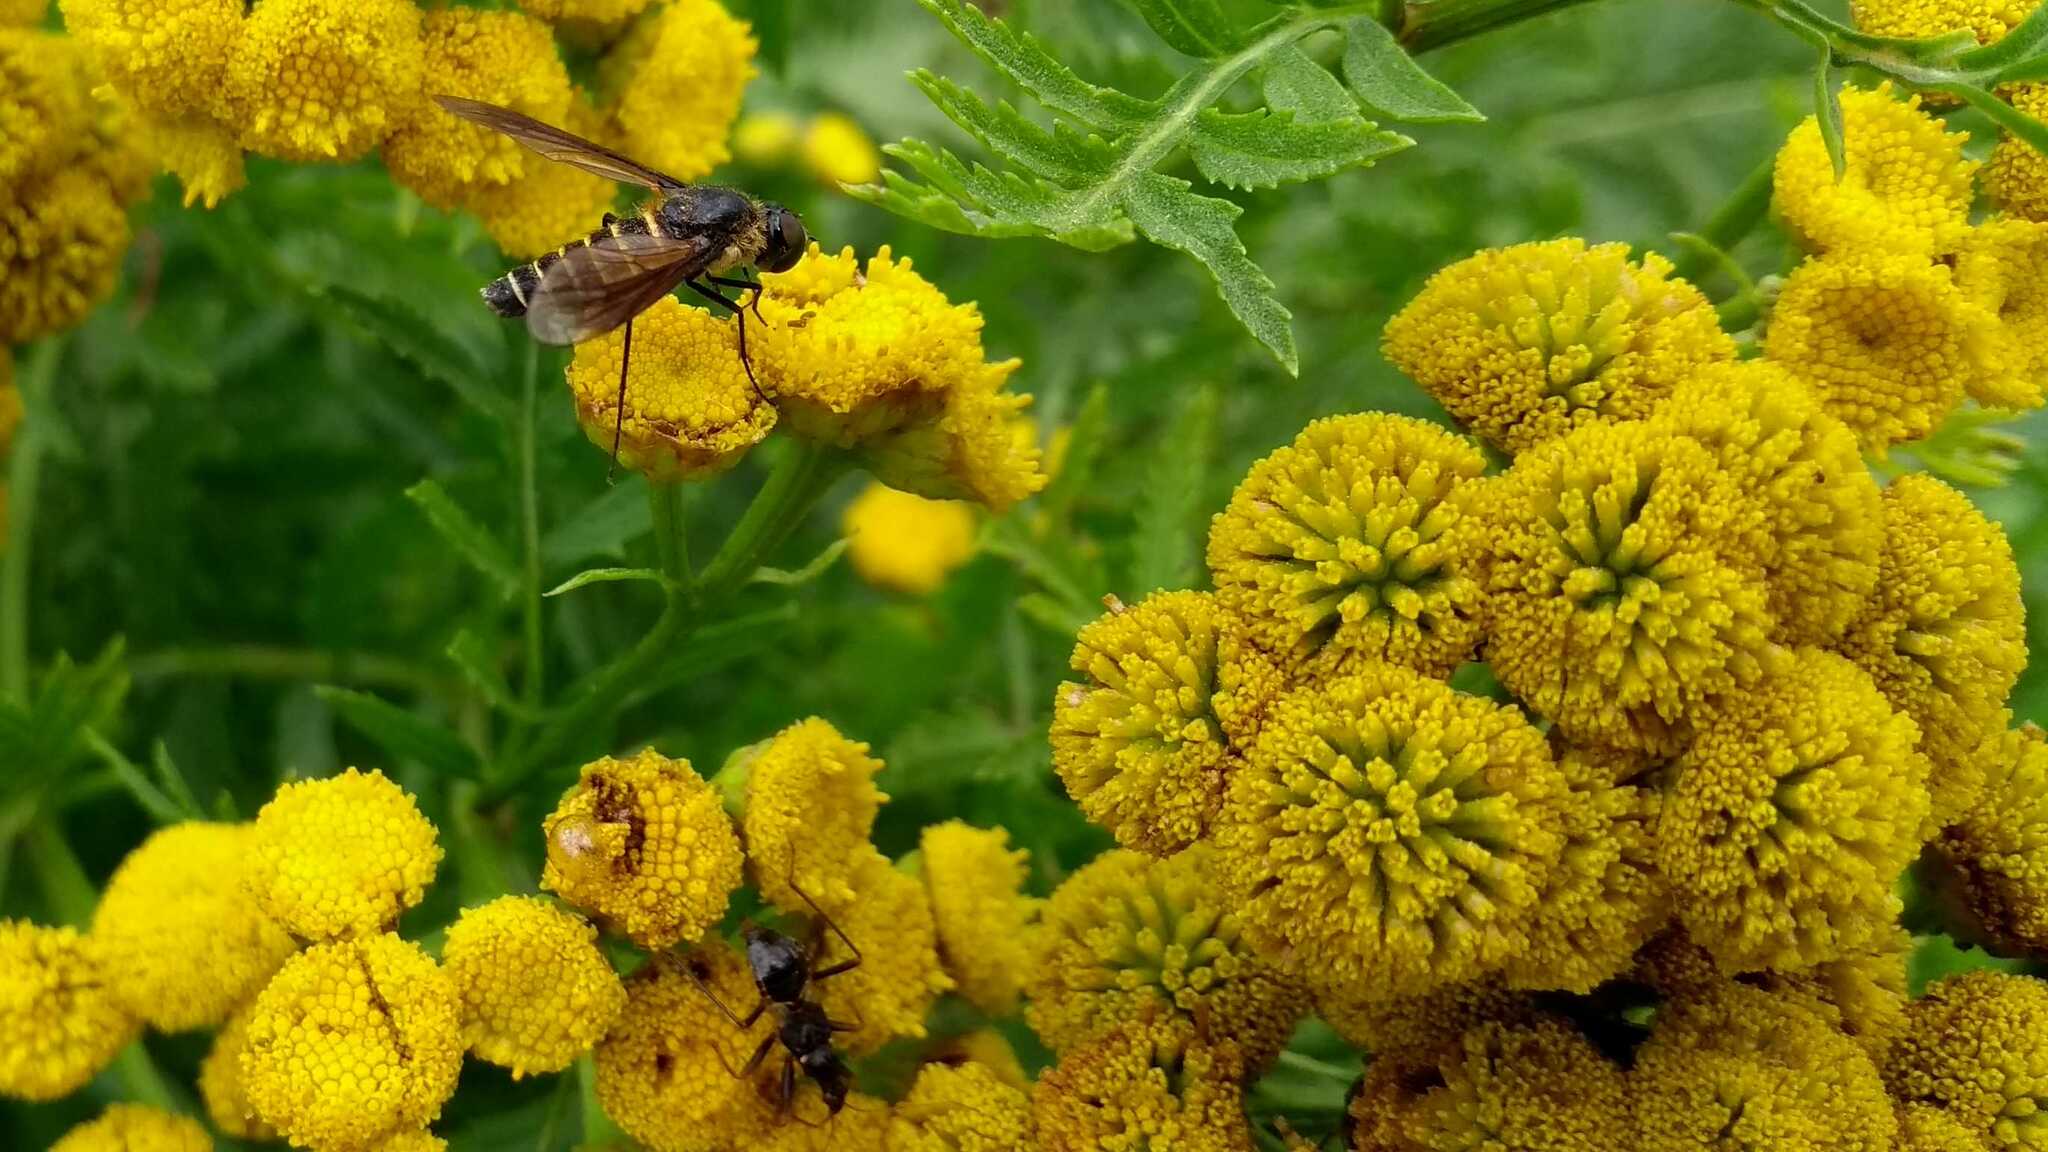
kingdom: Animalia
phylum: Arthropoda
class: Insecta
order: Diptera
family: Bombyliidae
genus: Lomatia
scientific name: Lomatia lateralis
